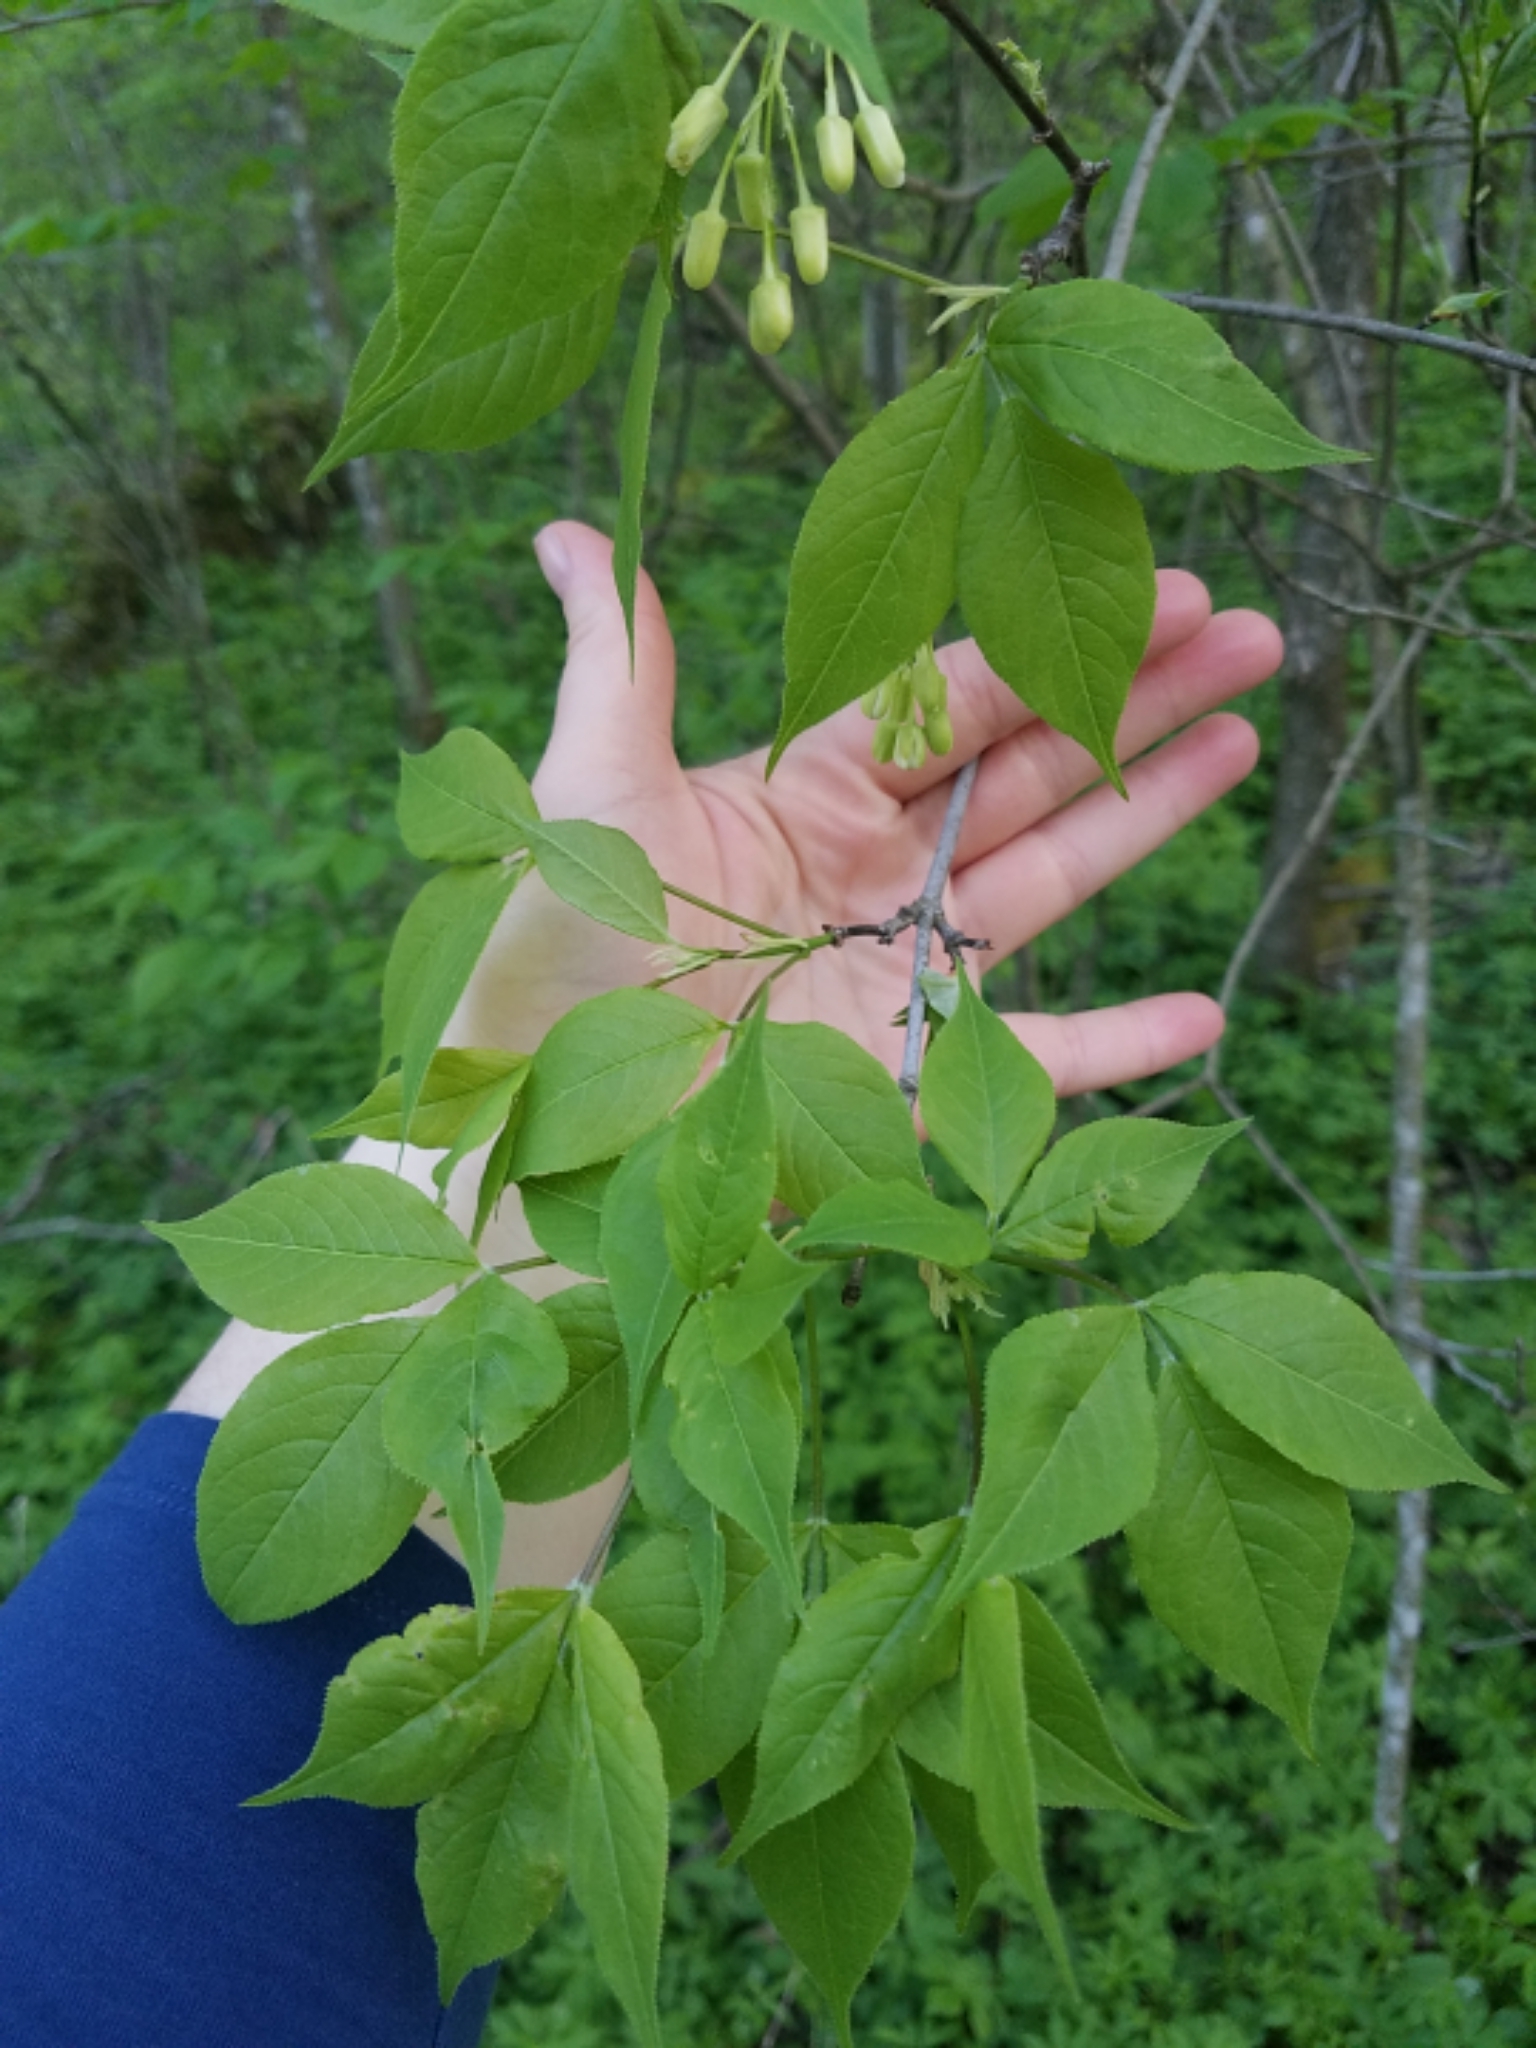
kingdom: Plantae
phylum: Tracheophyta
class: Magnoliopsida
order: Crossosomatales
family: Staphyleaceae
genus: Staphylea
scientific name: Staphylea trifolia
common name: American bladdernut
